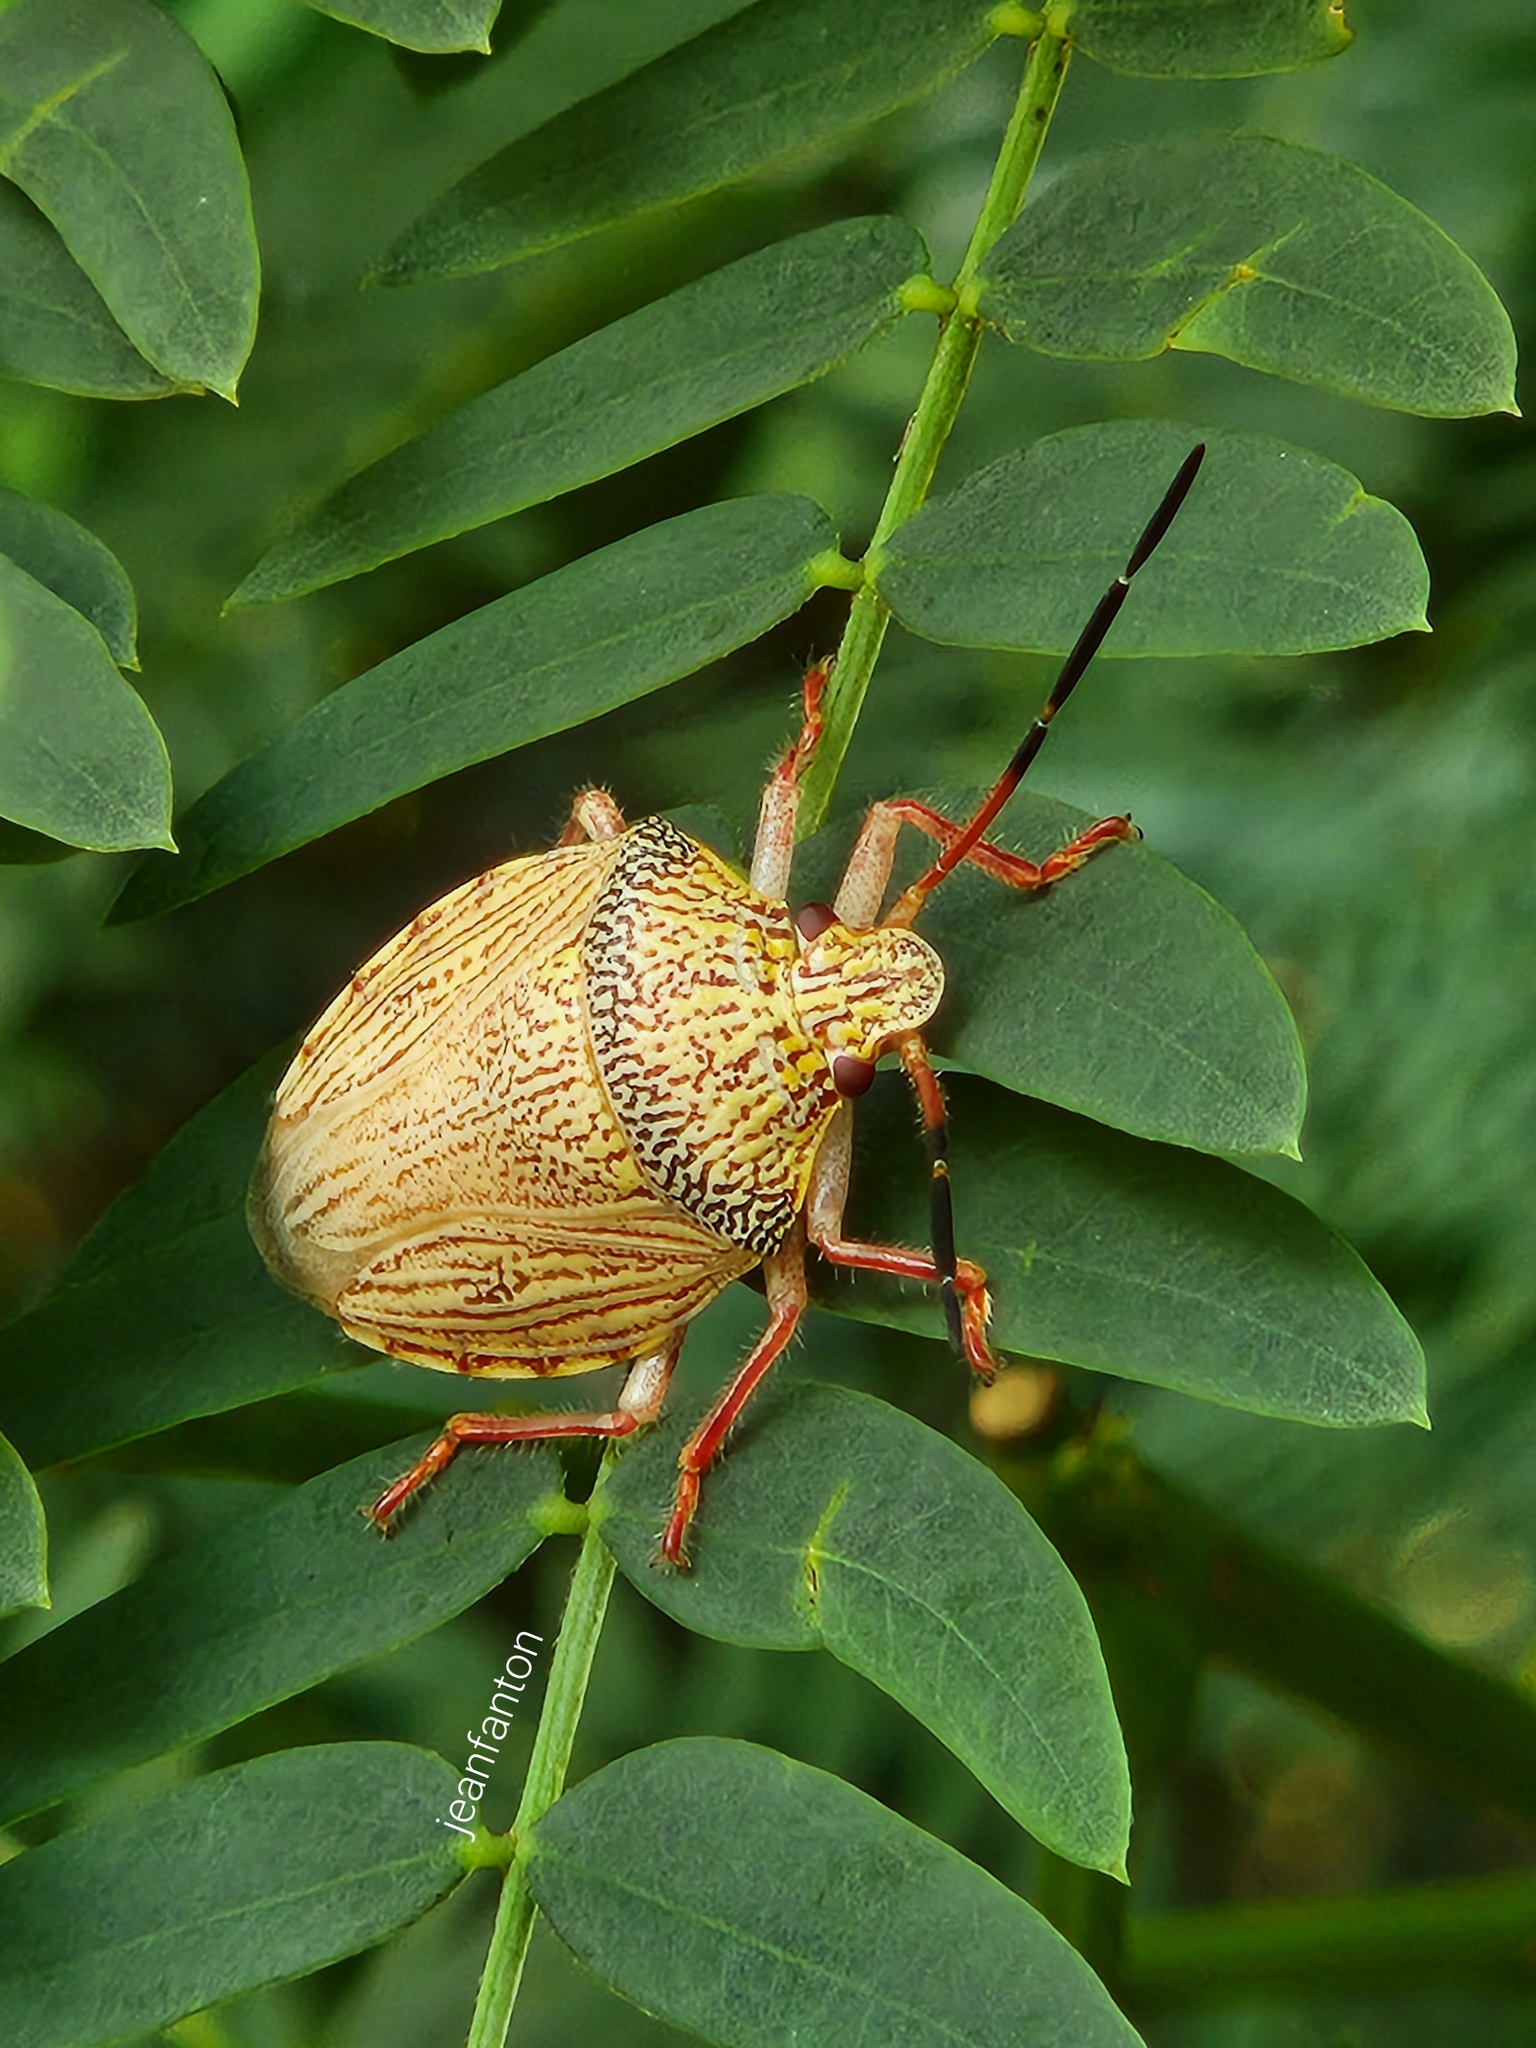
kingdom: Animalia
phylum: Arthropoda
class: Insecta
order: Hemiptera
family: Pentatomidae
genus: Antiteuchus
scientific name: Antiteuchus macraspis
